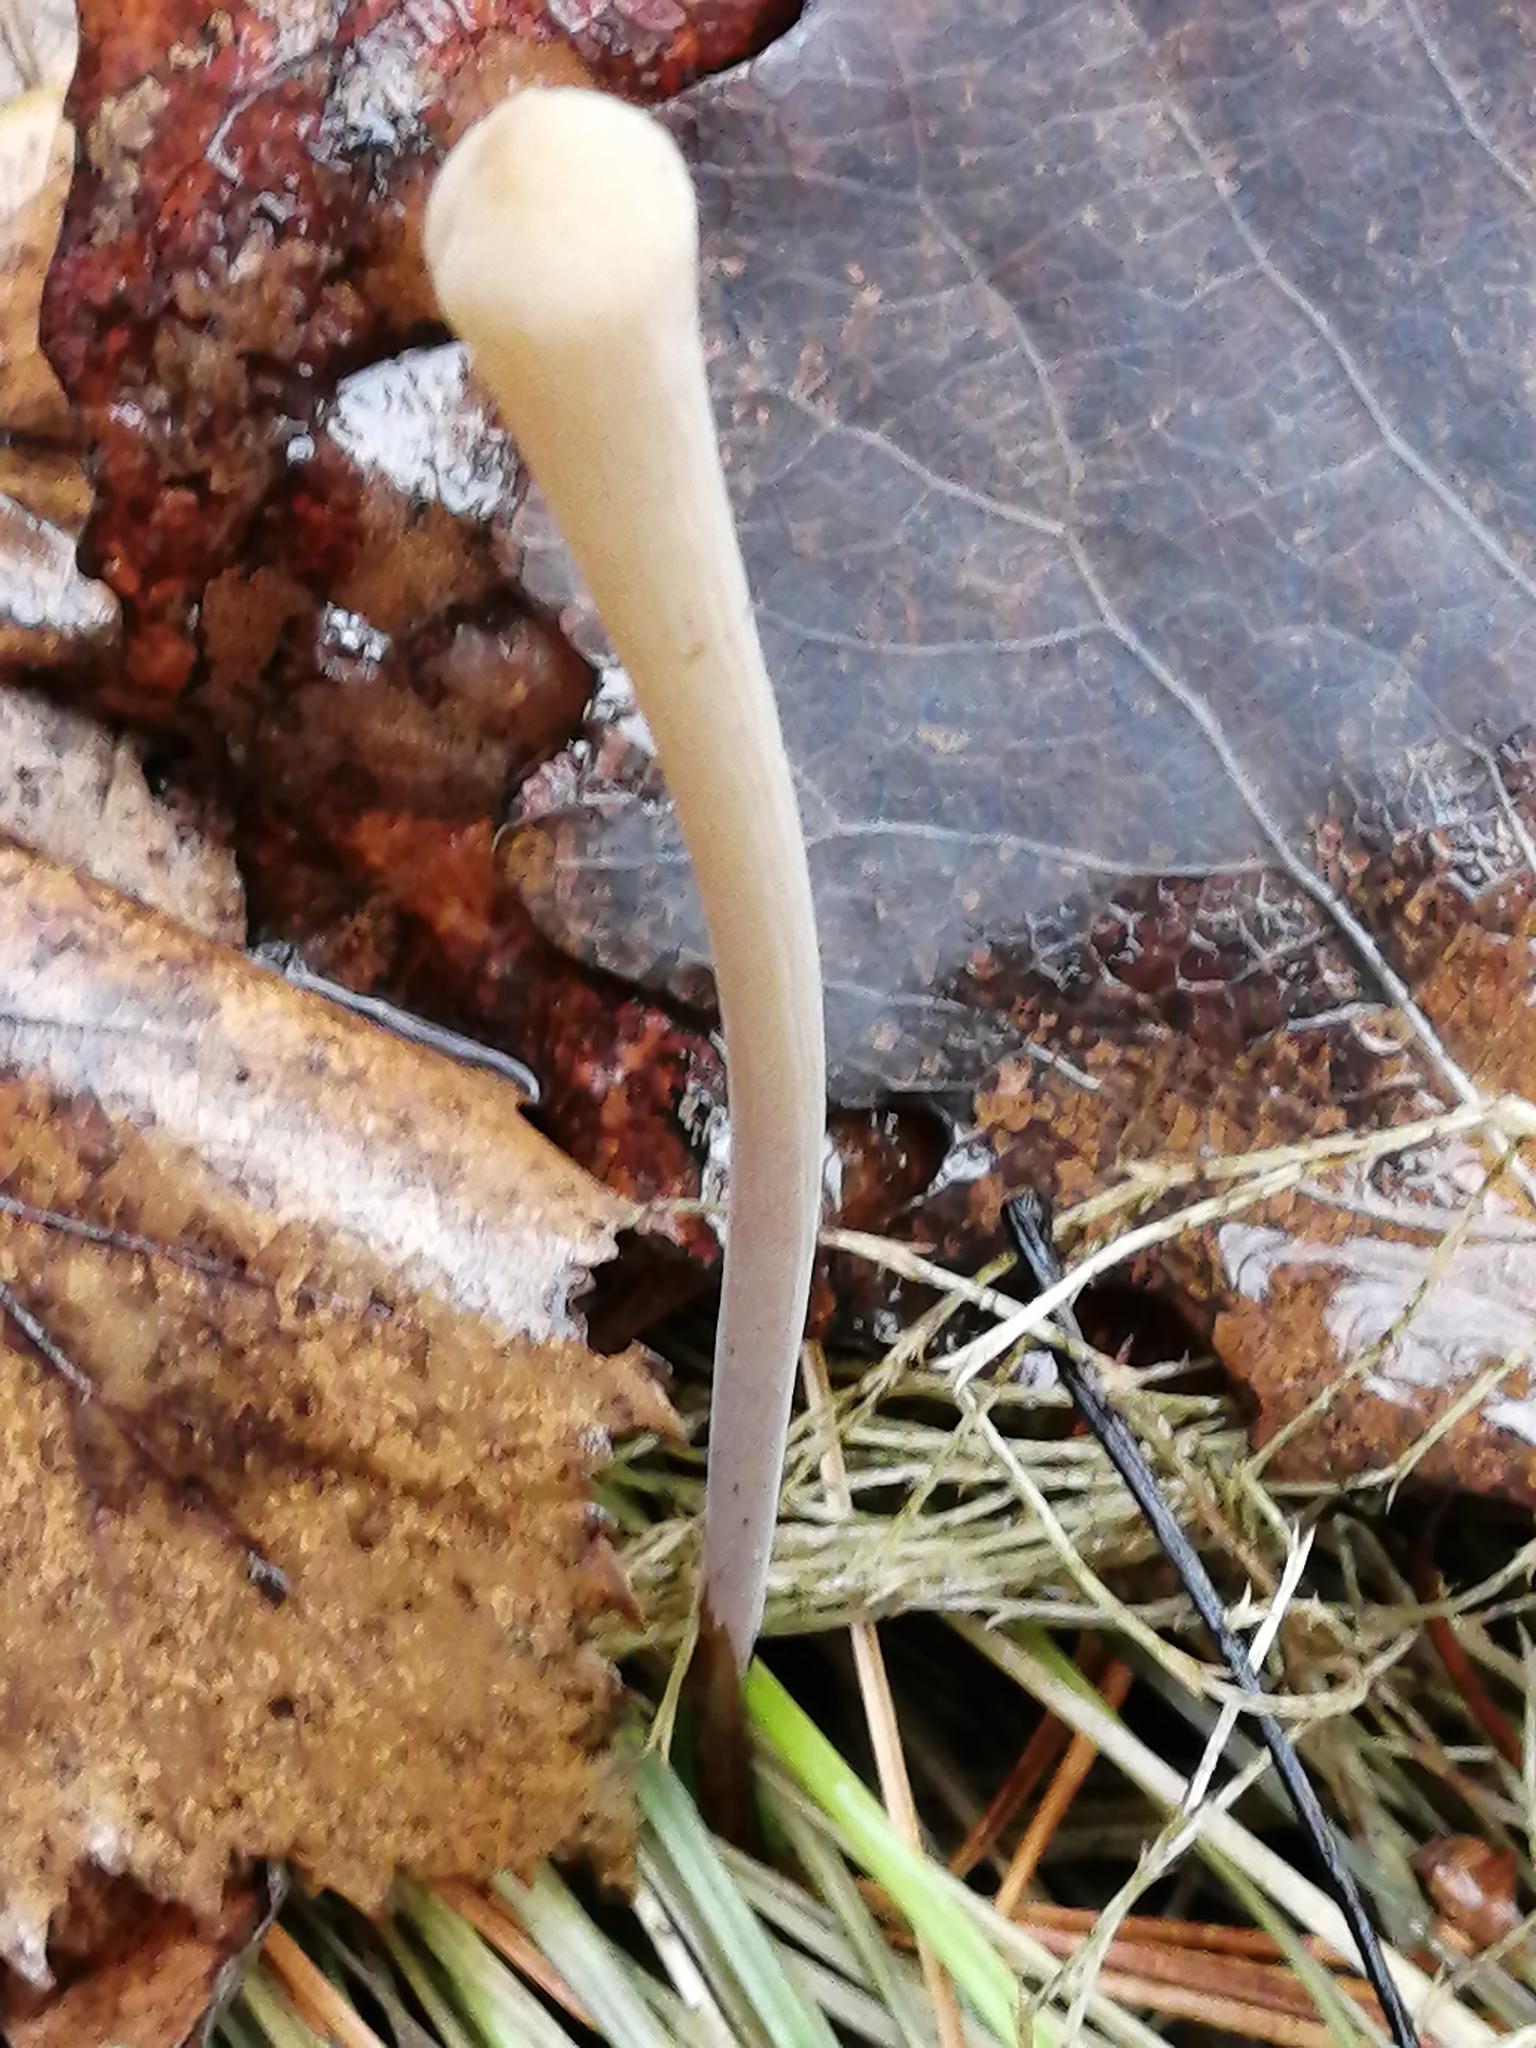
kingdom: Fungi
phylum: Basidiomycota
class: Agaricomycetes
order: Agaricales
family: Typhulaceae
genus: Typhula
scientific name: Typhula fistulosa
